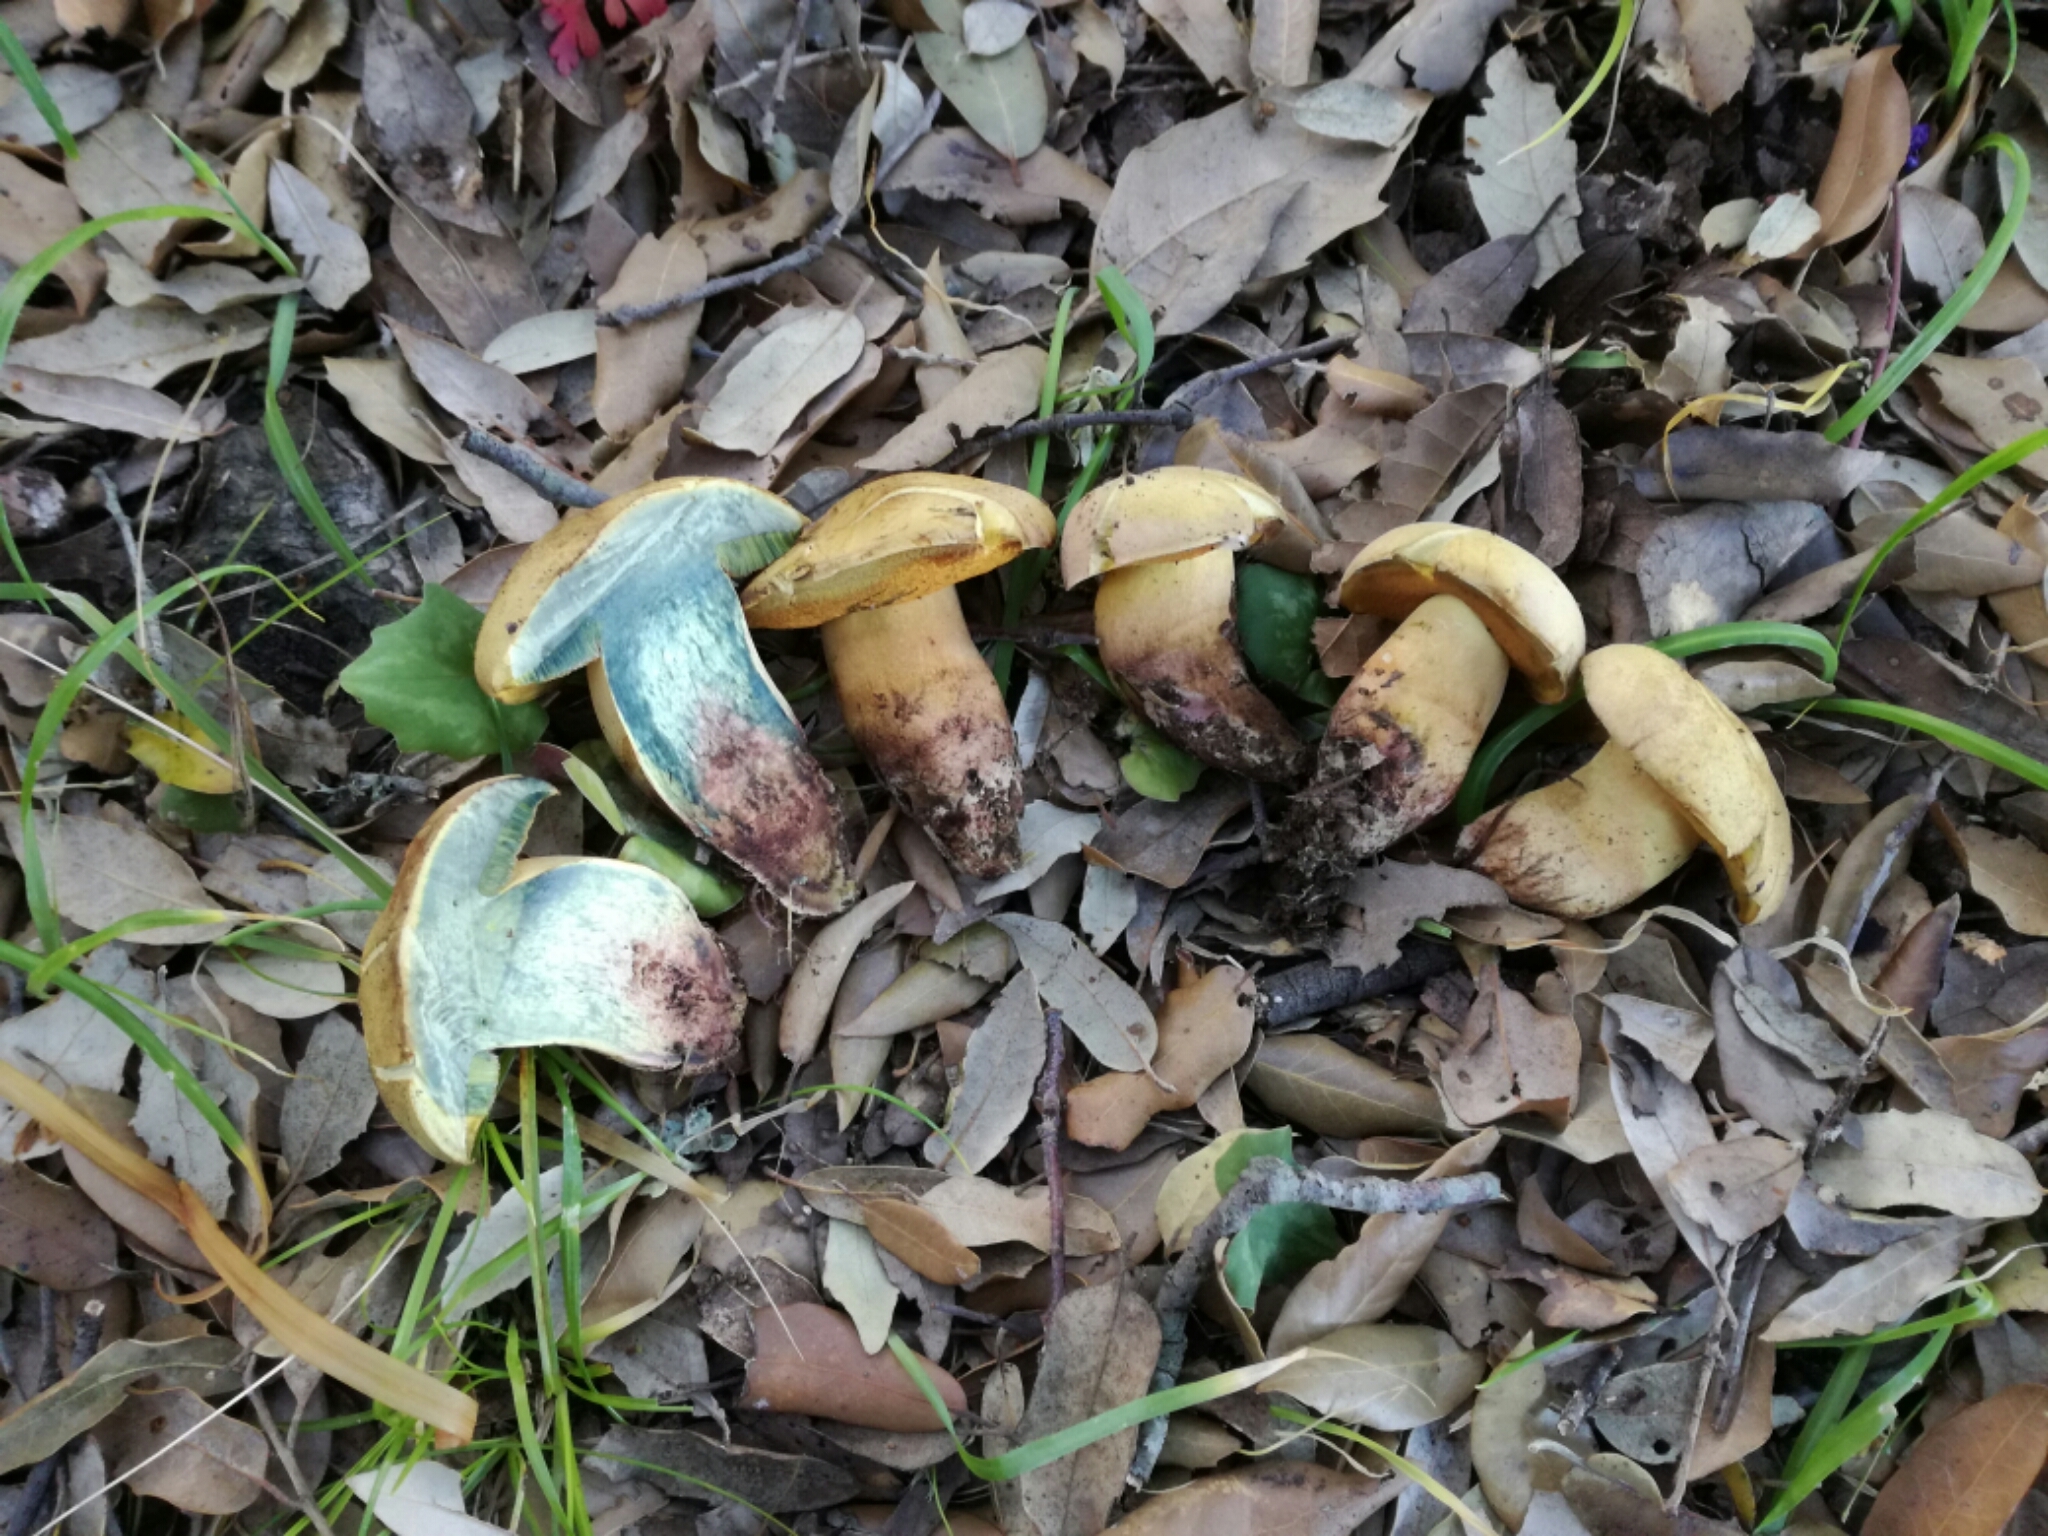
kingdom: Fungi
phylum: Basidiomycota
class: Agaricomycetes
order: Boletales
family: Boletaceae
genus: Suillellus
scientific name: Suillellus queletii
